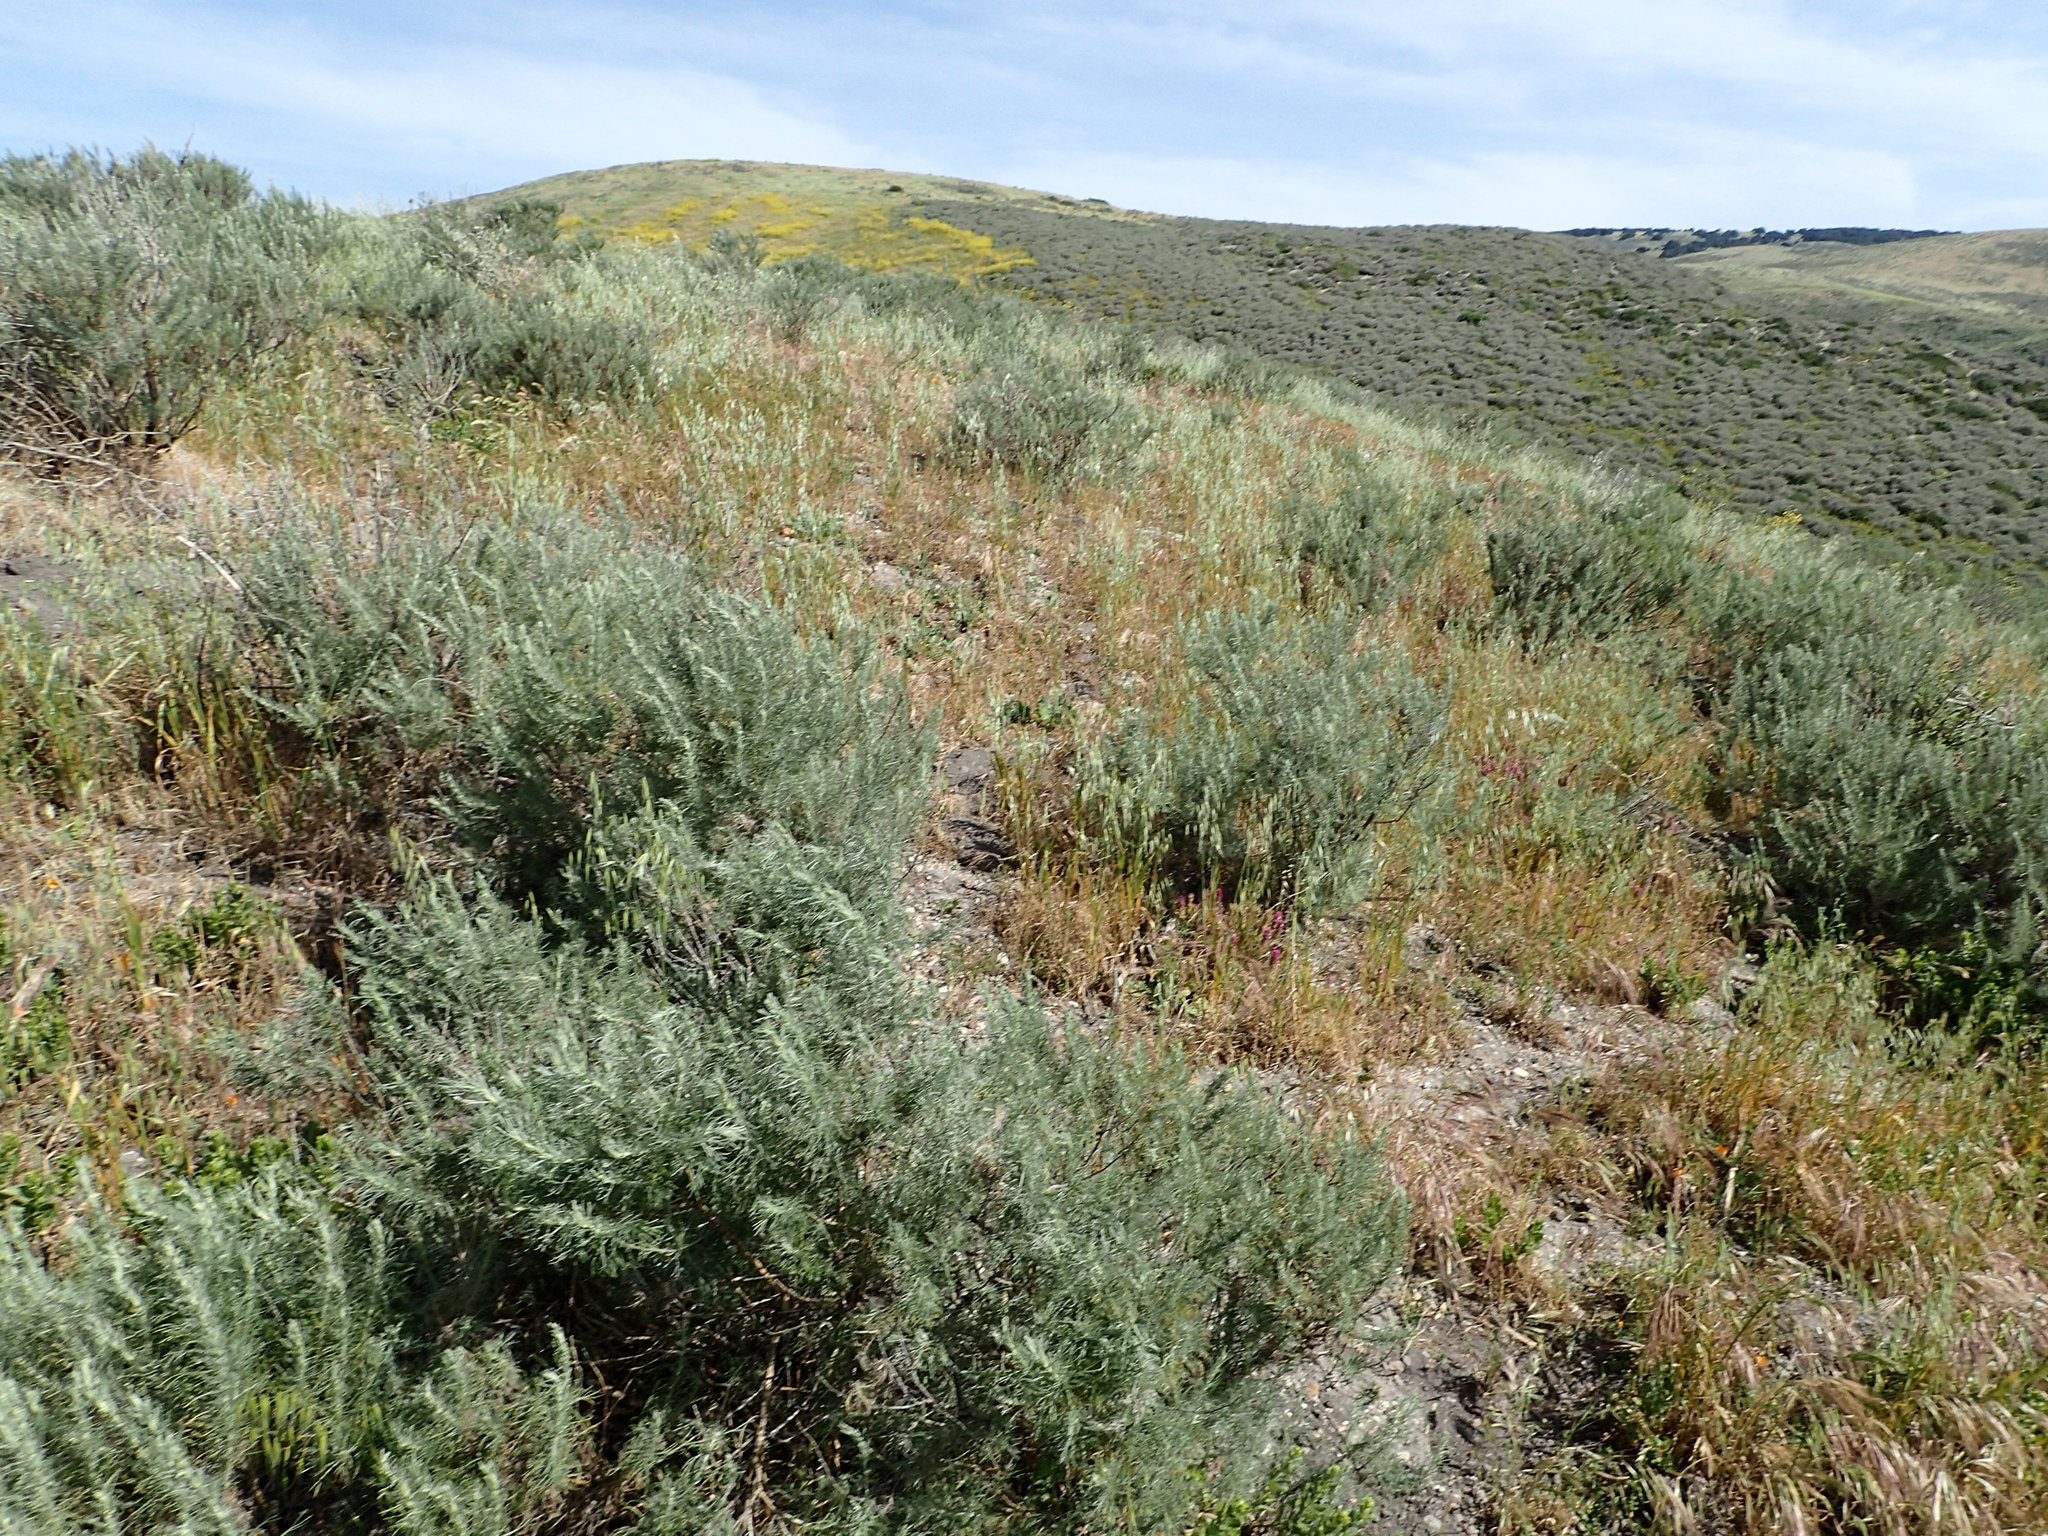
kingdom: Plantae
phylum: Tracheophyta
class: Magnoliopsida
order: Asterales
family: Asteraceae
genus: Artemisia
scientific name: Artemisia californica
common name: California sagebrush
